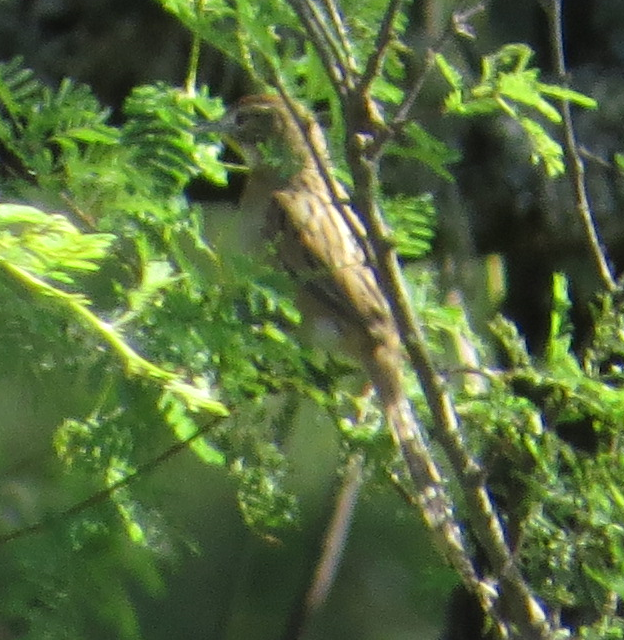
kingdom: Animalia
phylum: Chordata
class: Aves
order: Passeriformes
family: Furnariidae
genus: Schoeniophylax
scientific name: Schoeniophylax phryganophilus
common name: Chotoy spinetail
